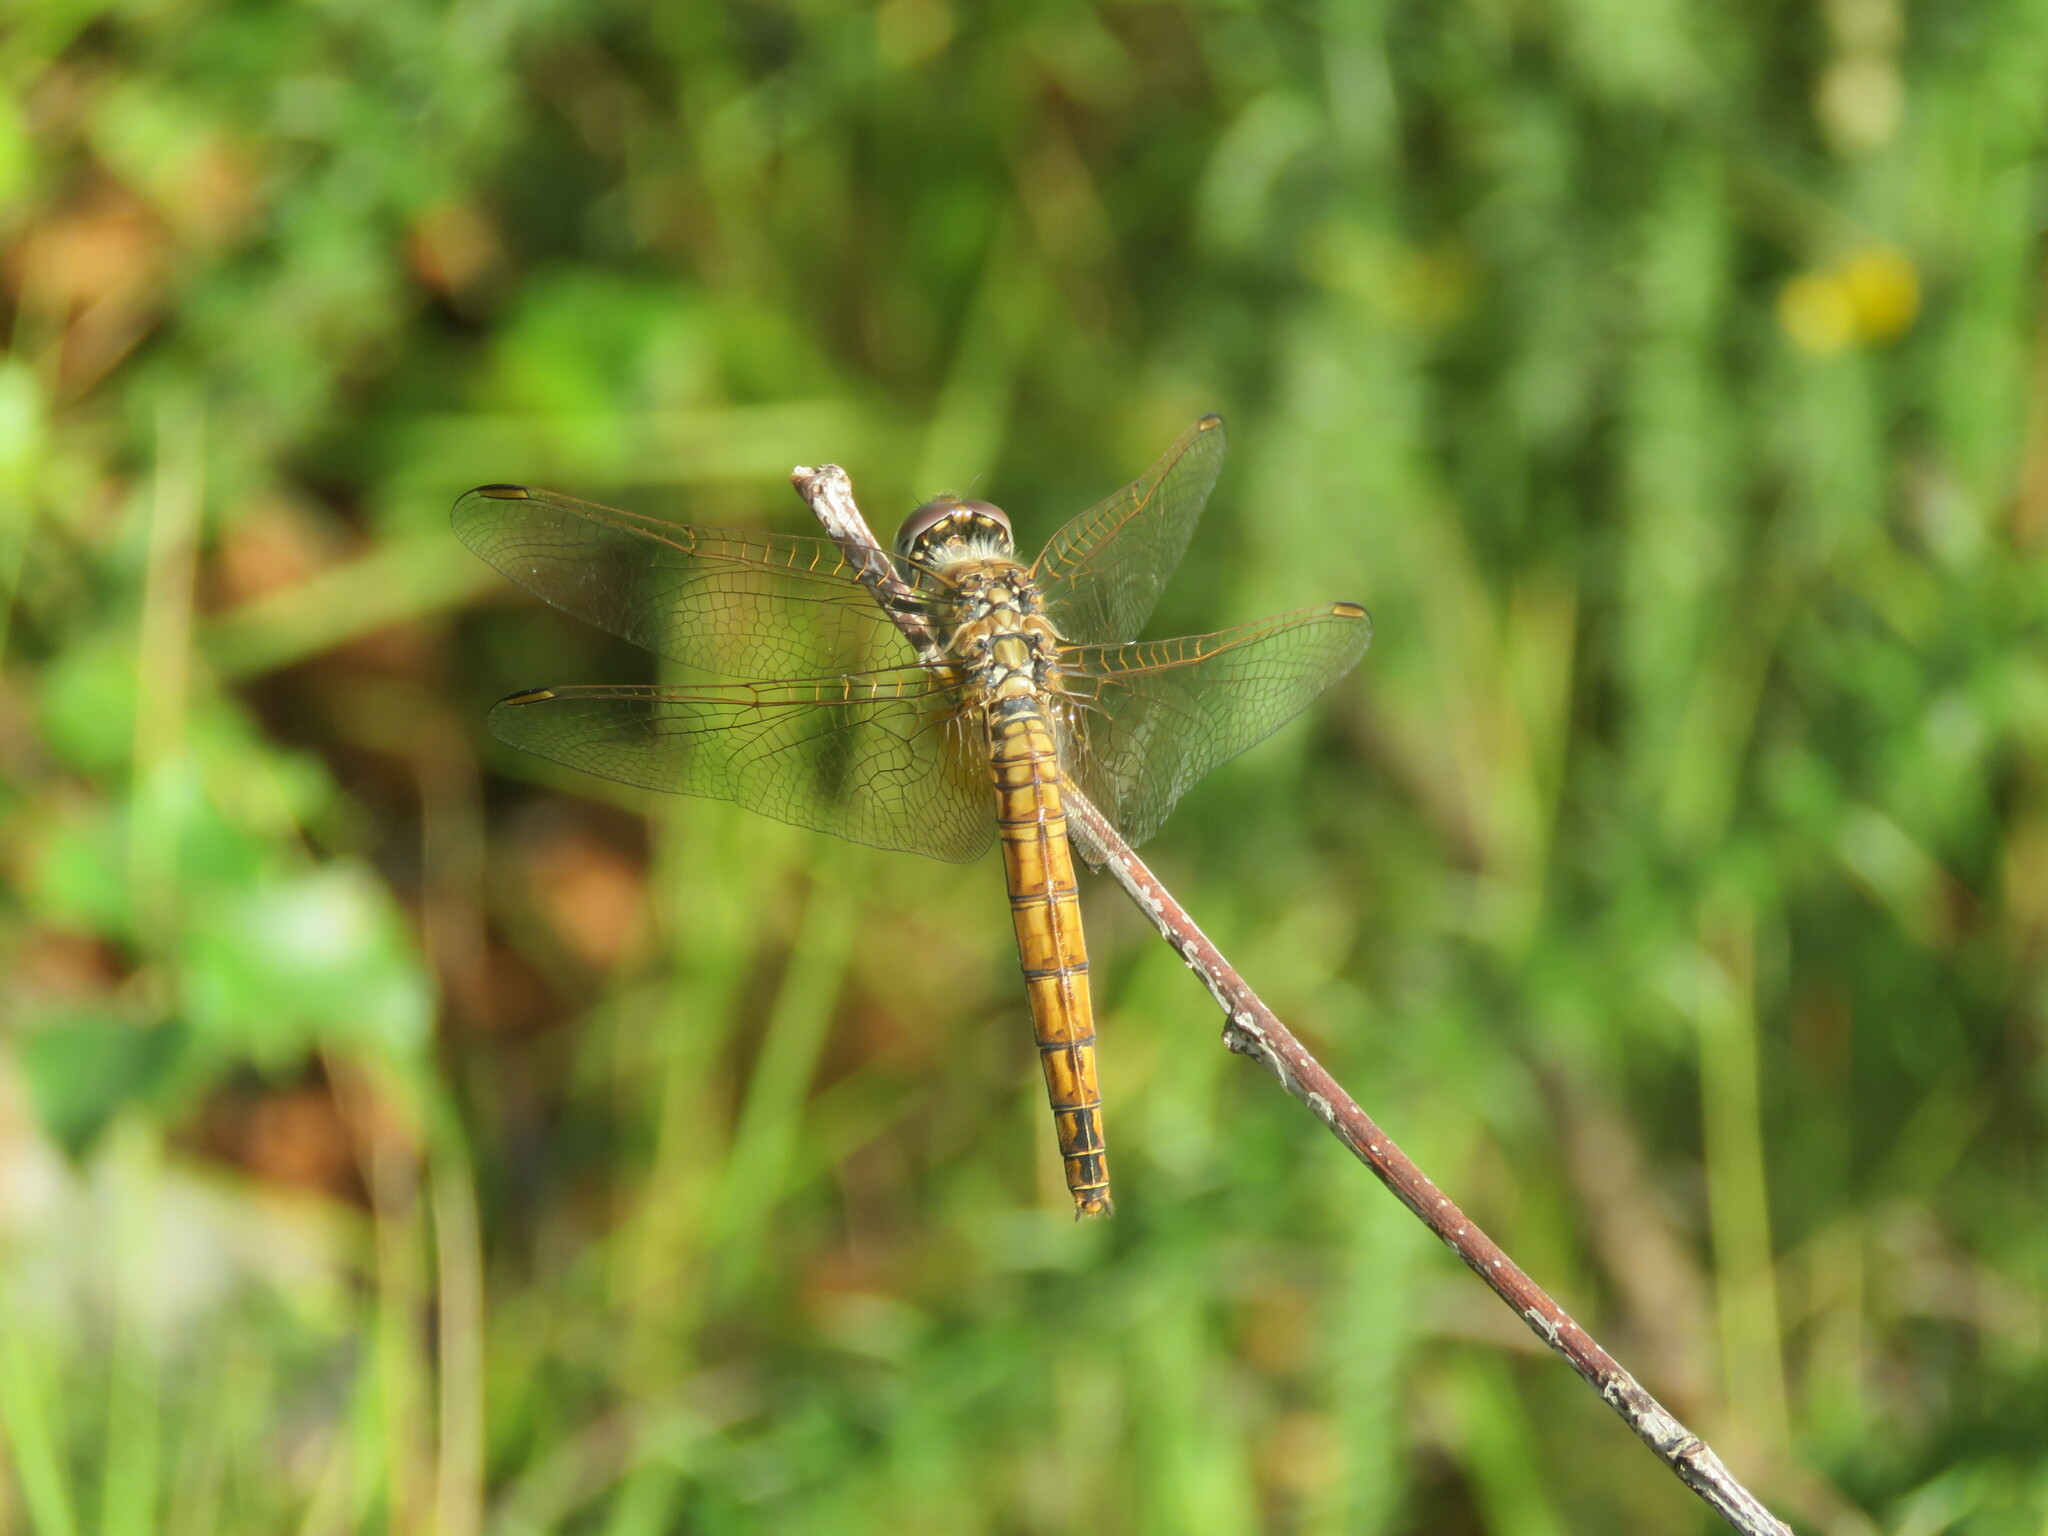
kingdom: Animalia
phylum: Arthropoda
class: Insecta
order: Odonata
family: Libellulidae
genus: Trithemis
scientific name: Trithemis annulata
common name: Violet dropwing
